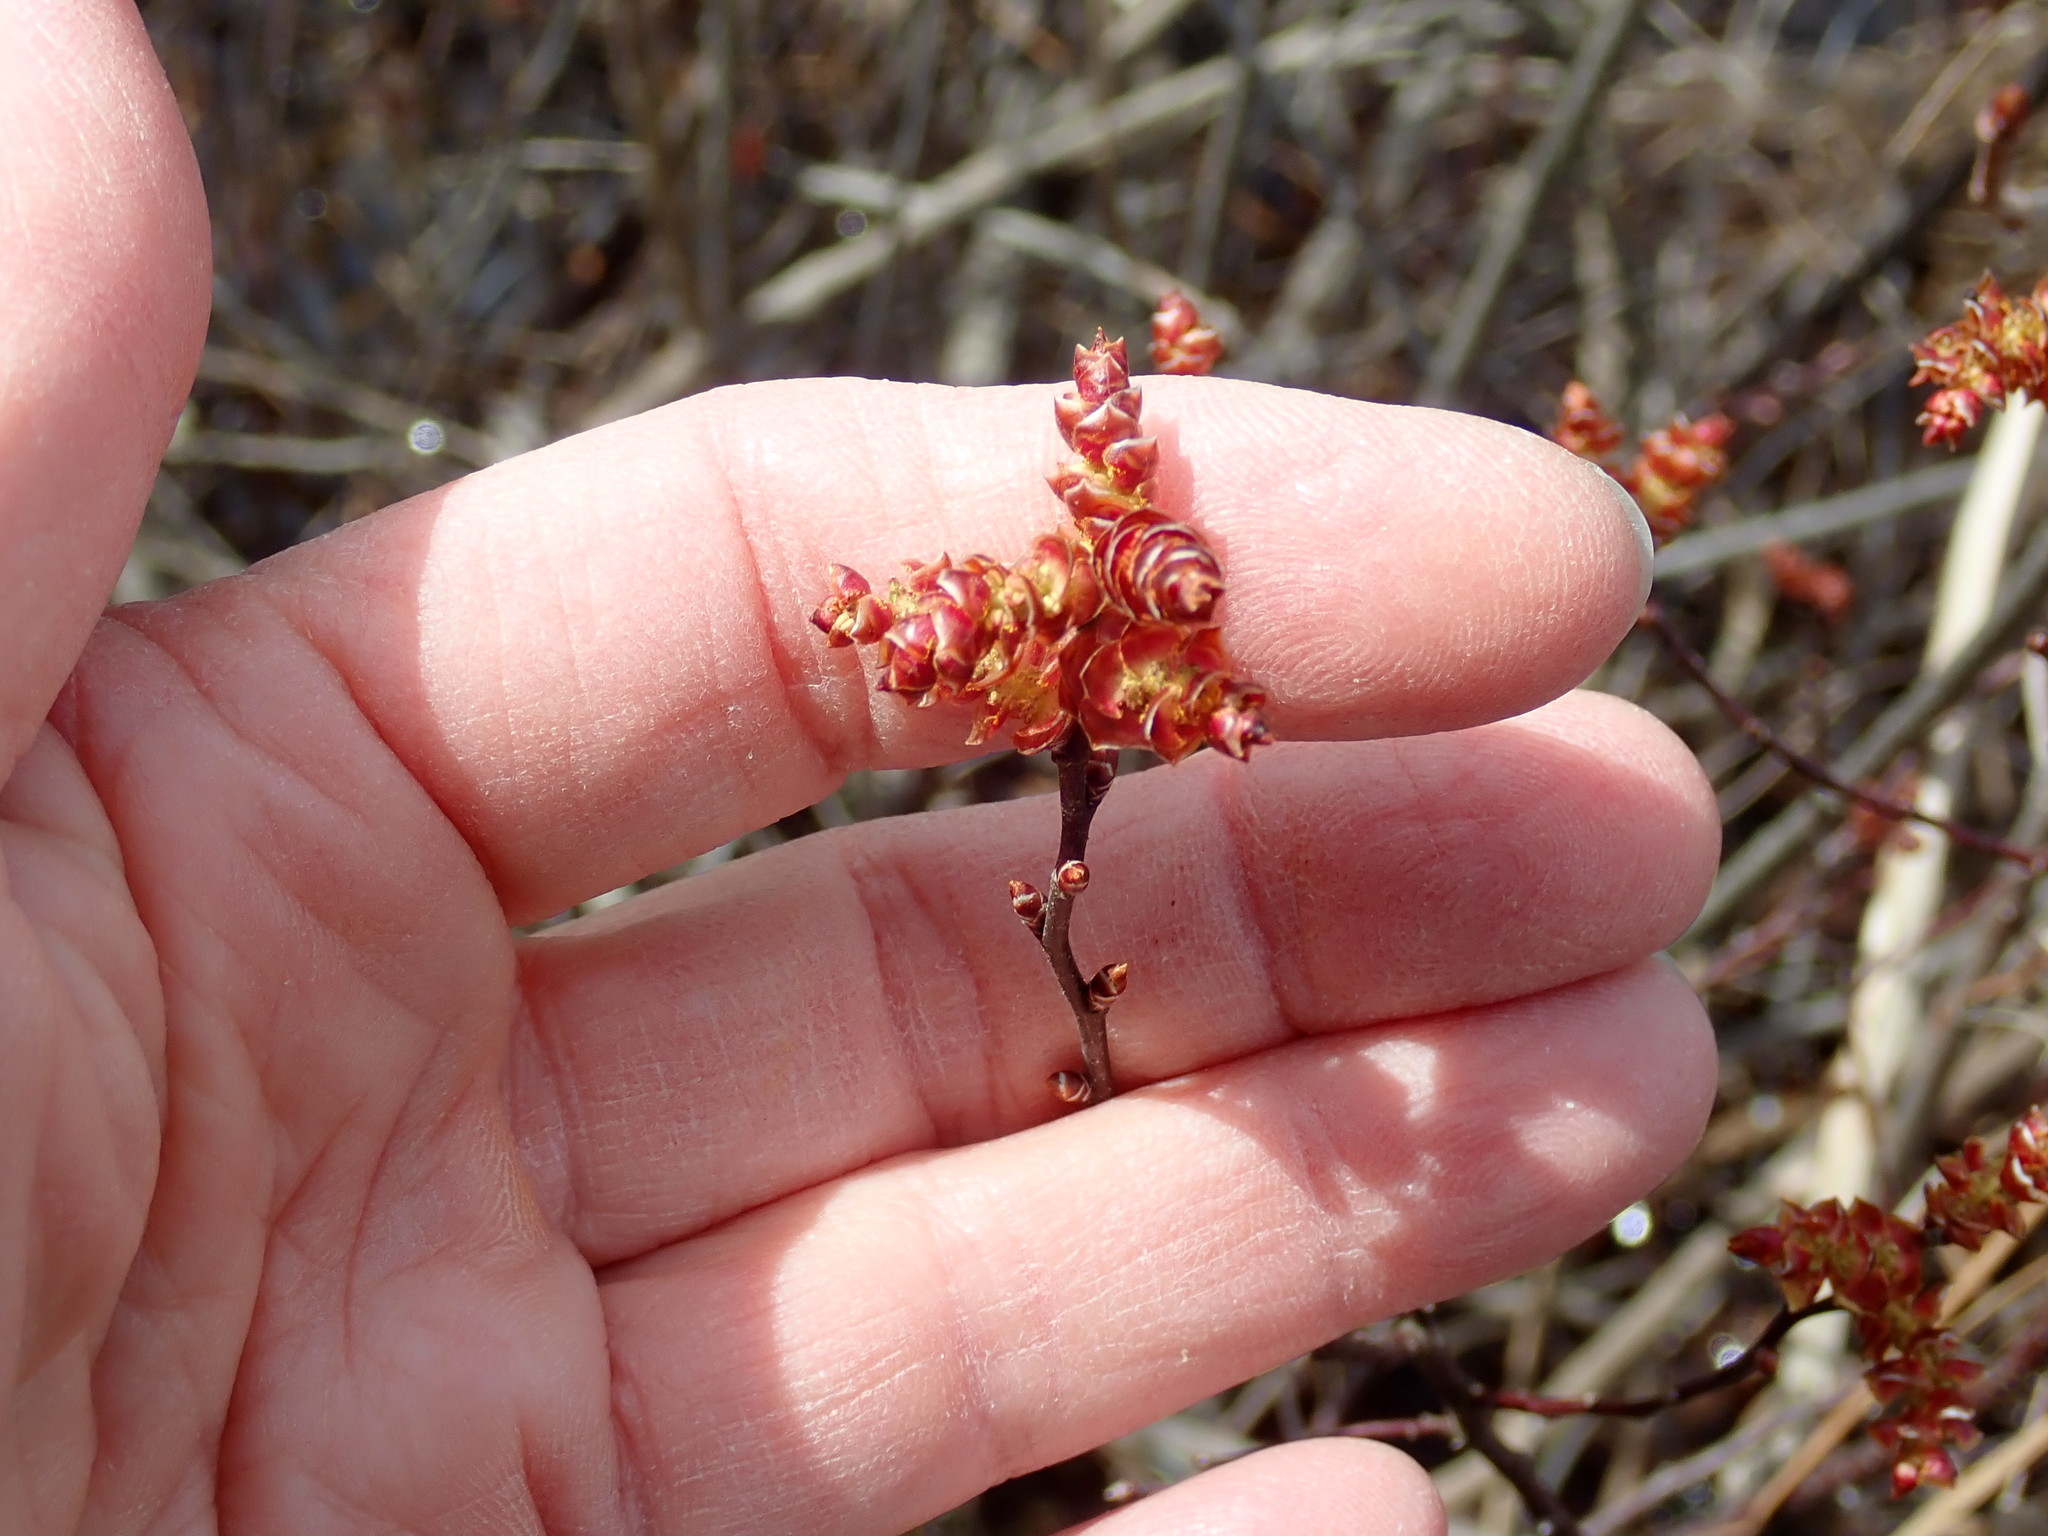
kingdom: Plantae
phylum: Tracheophyta
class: Magnoliopsida
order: Fagales
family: Myricaceae
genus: Myrica
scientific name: Myrica gale
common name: Sweet gale
